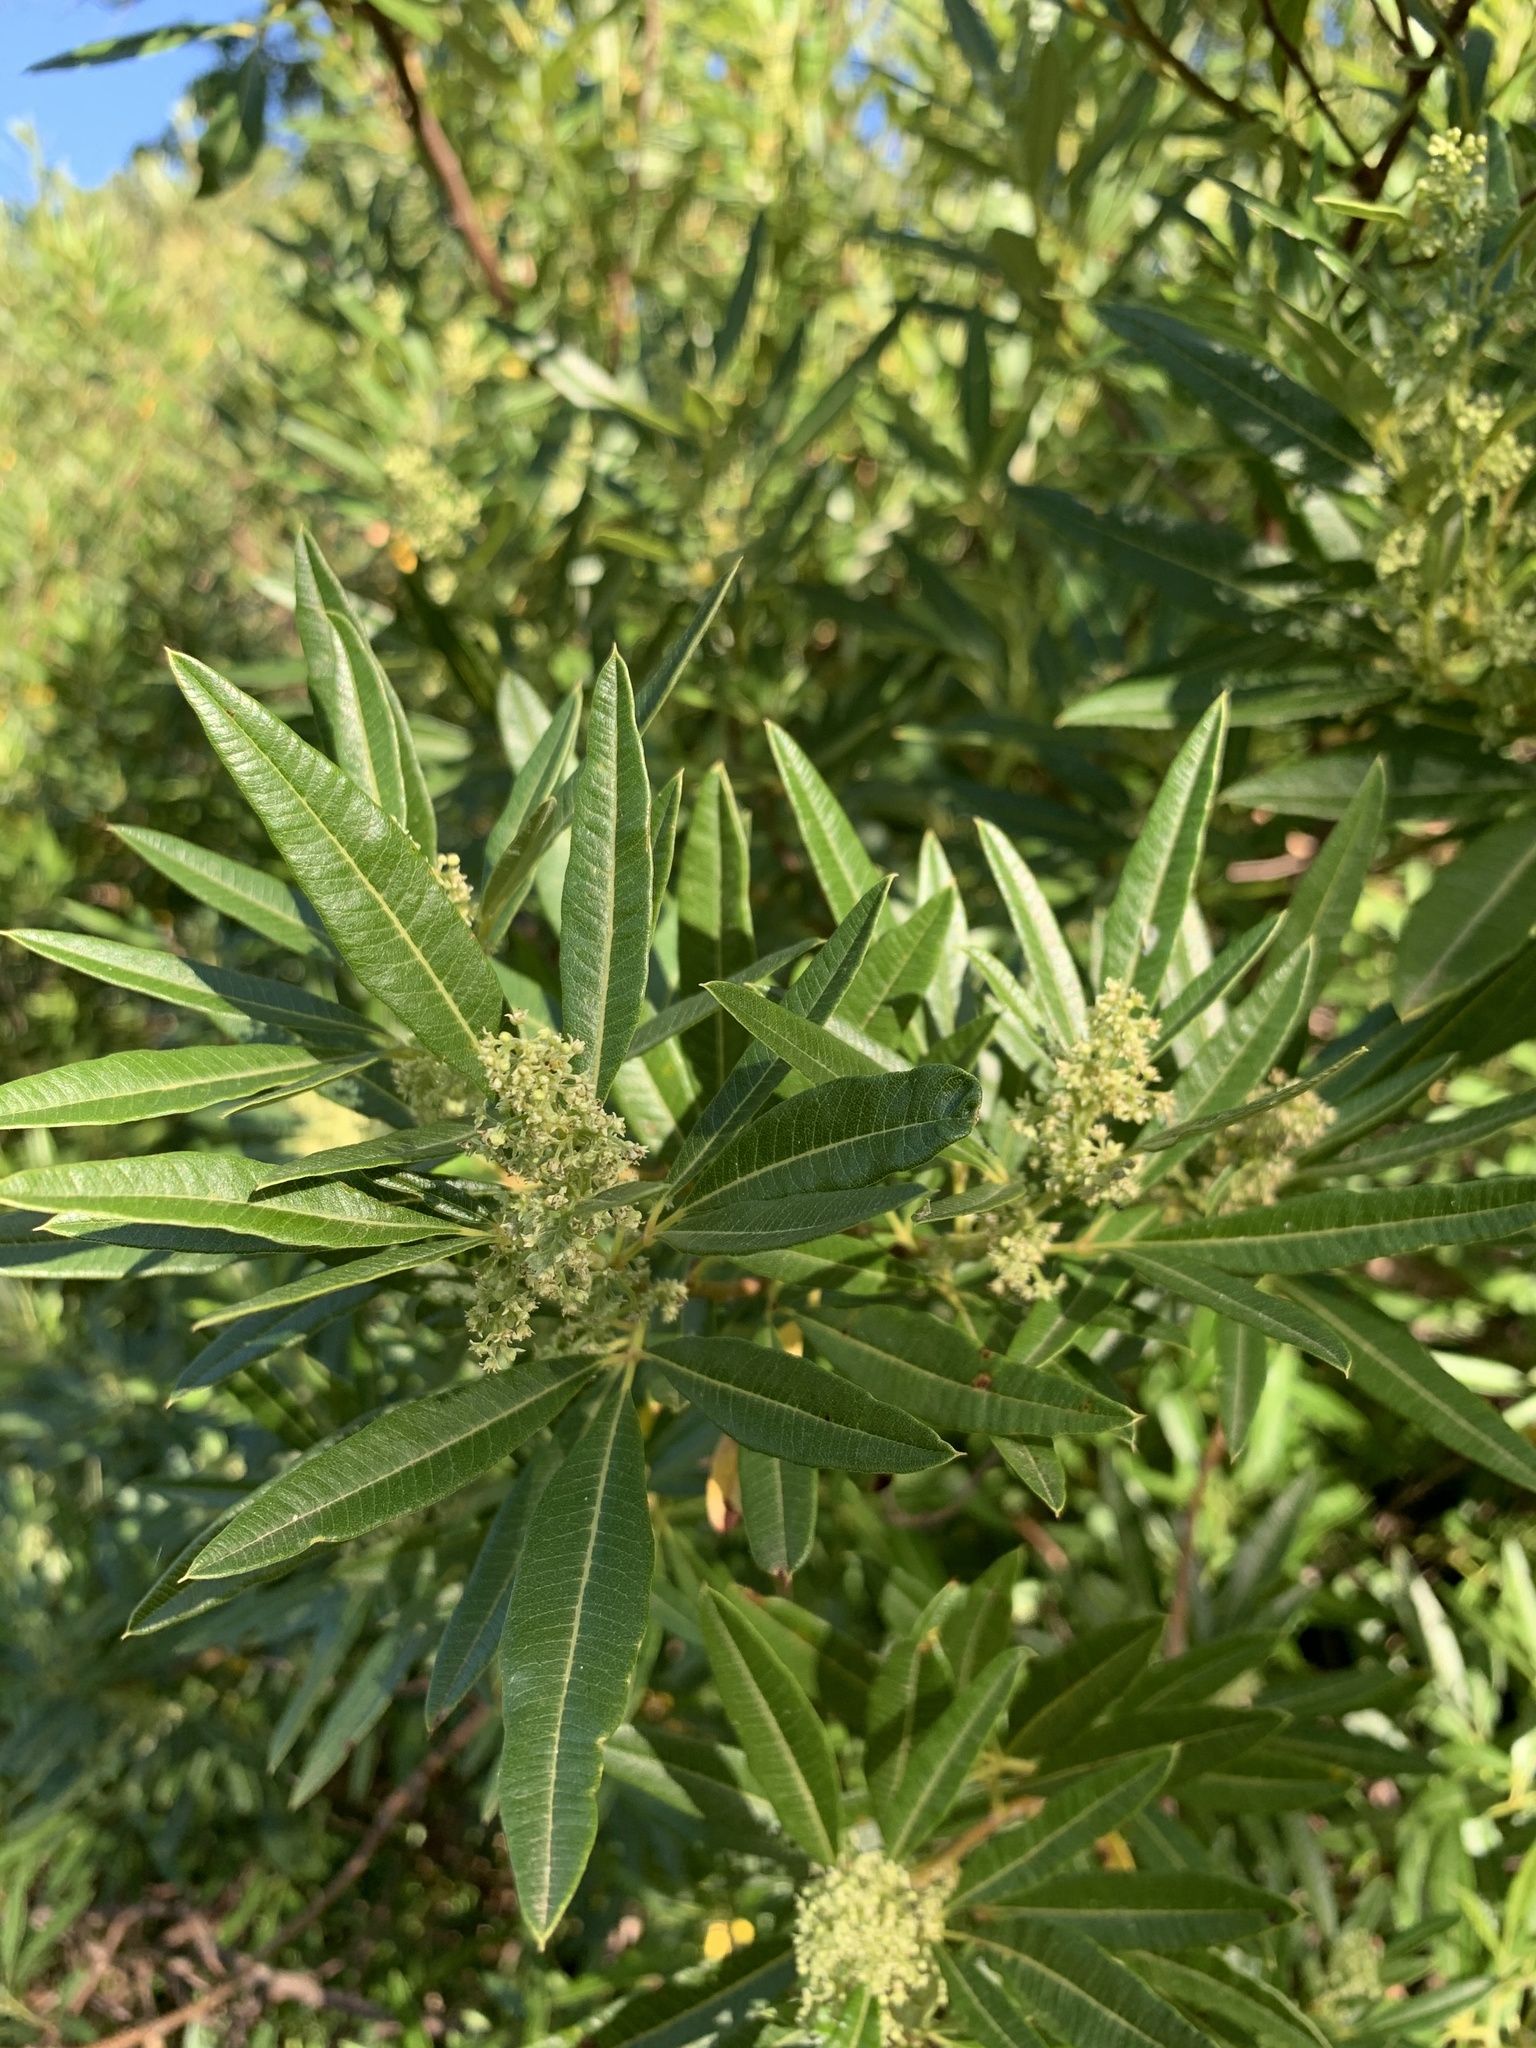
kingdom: Plantae
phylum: Tracheophyta
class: Magnoliopsida
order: Sapindales
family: Anacardiaceae
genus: Searsia
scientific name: Searsia angustifolia
